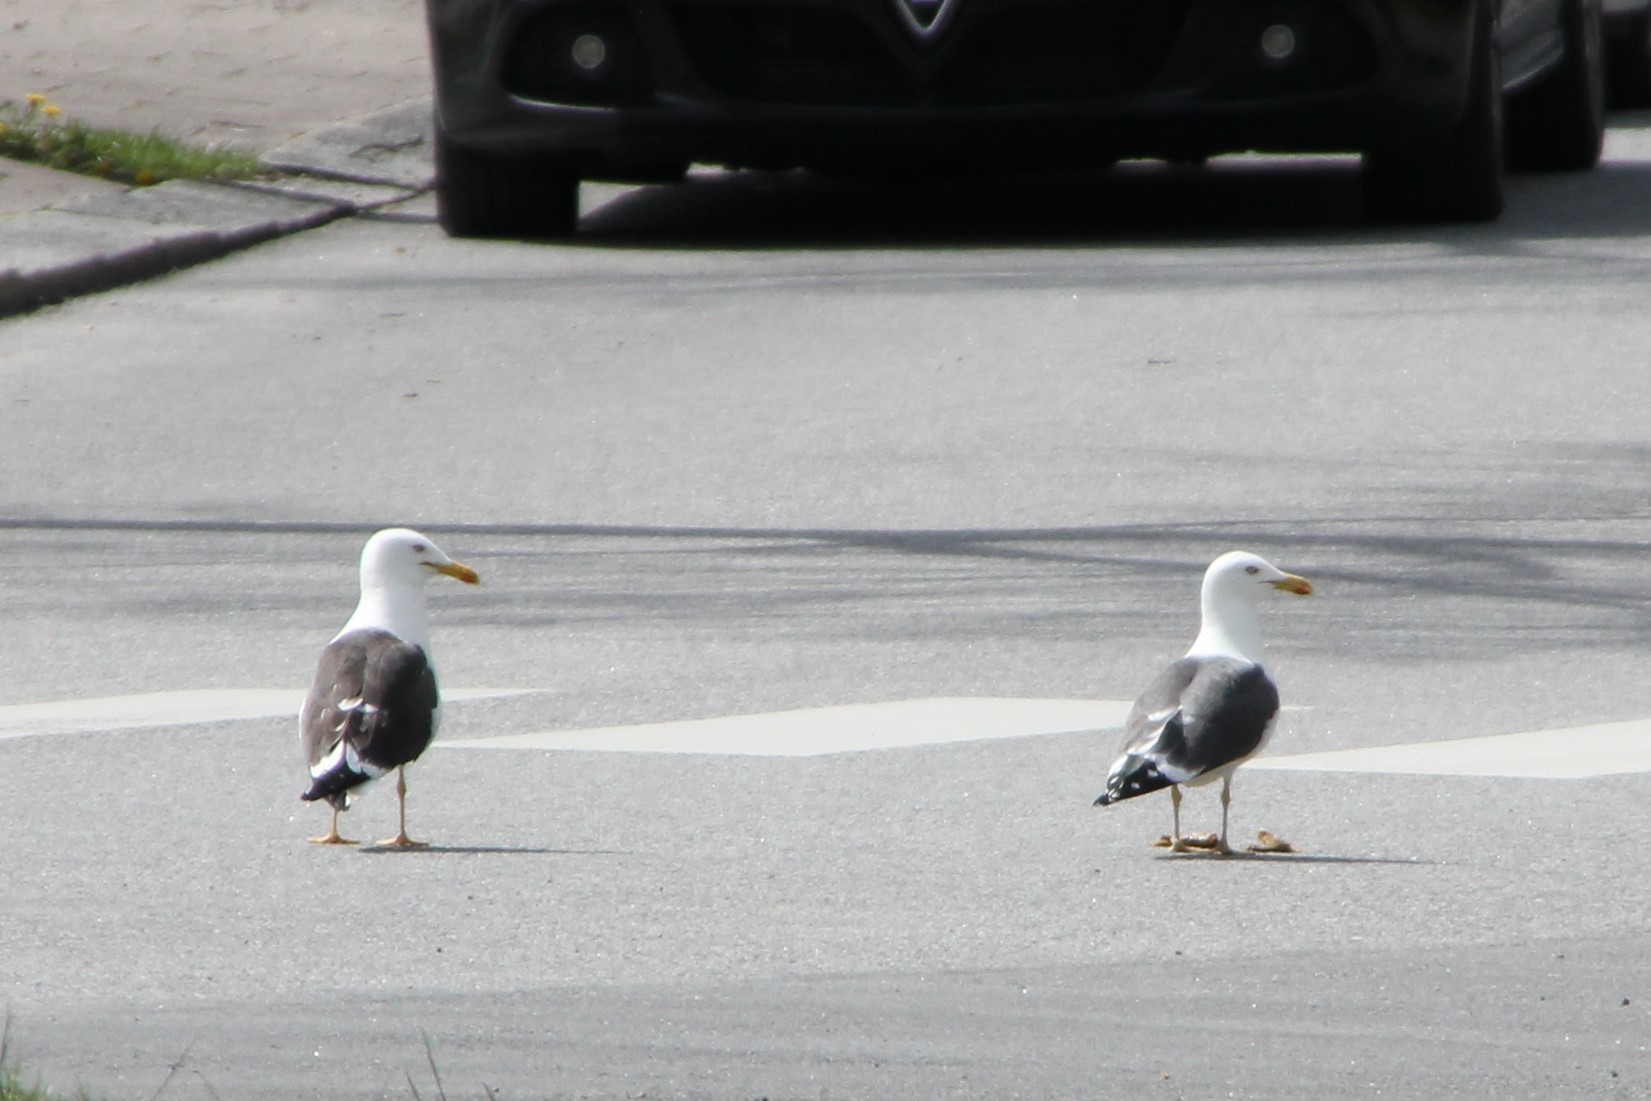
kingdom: Animalia
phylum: Chordata
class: Aves
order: Charadriiformes
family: Laridae
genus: Larus
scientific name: Larus fuscus
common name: Lesser black-backed gull
